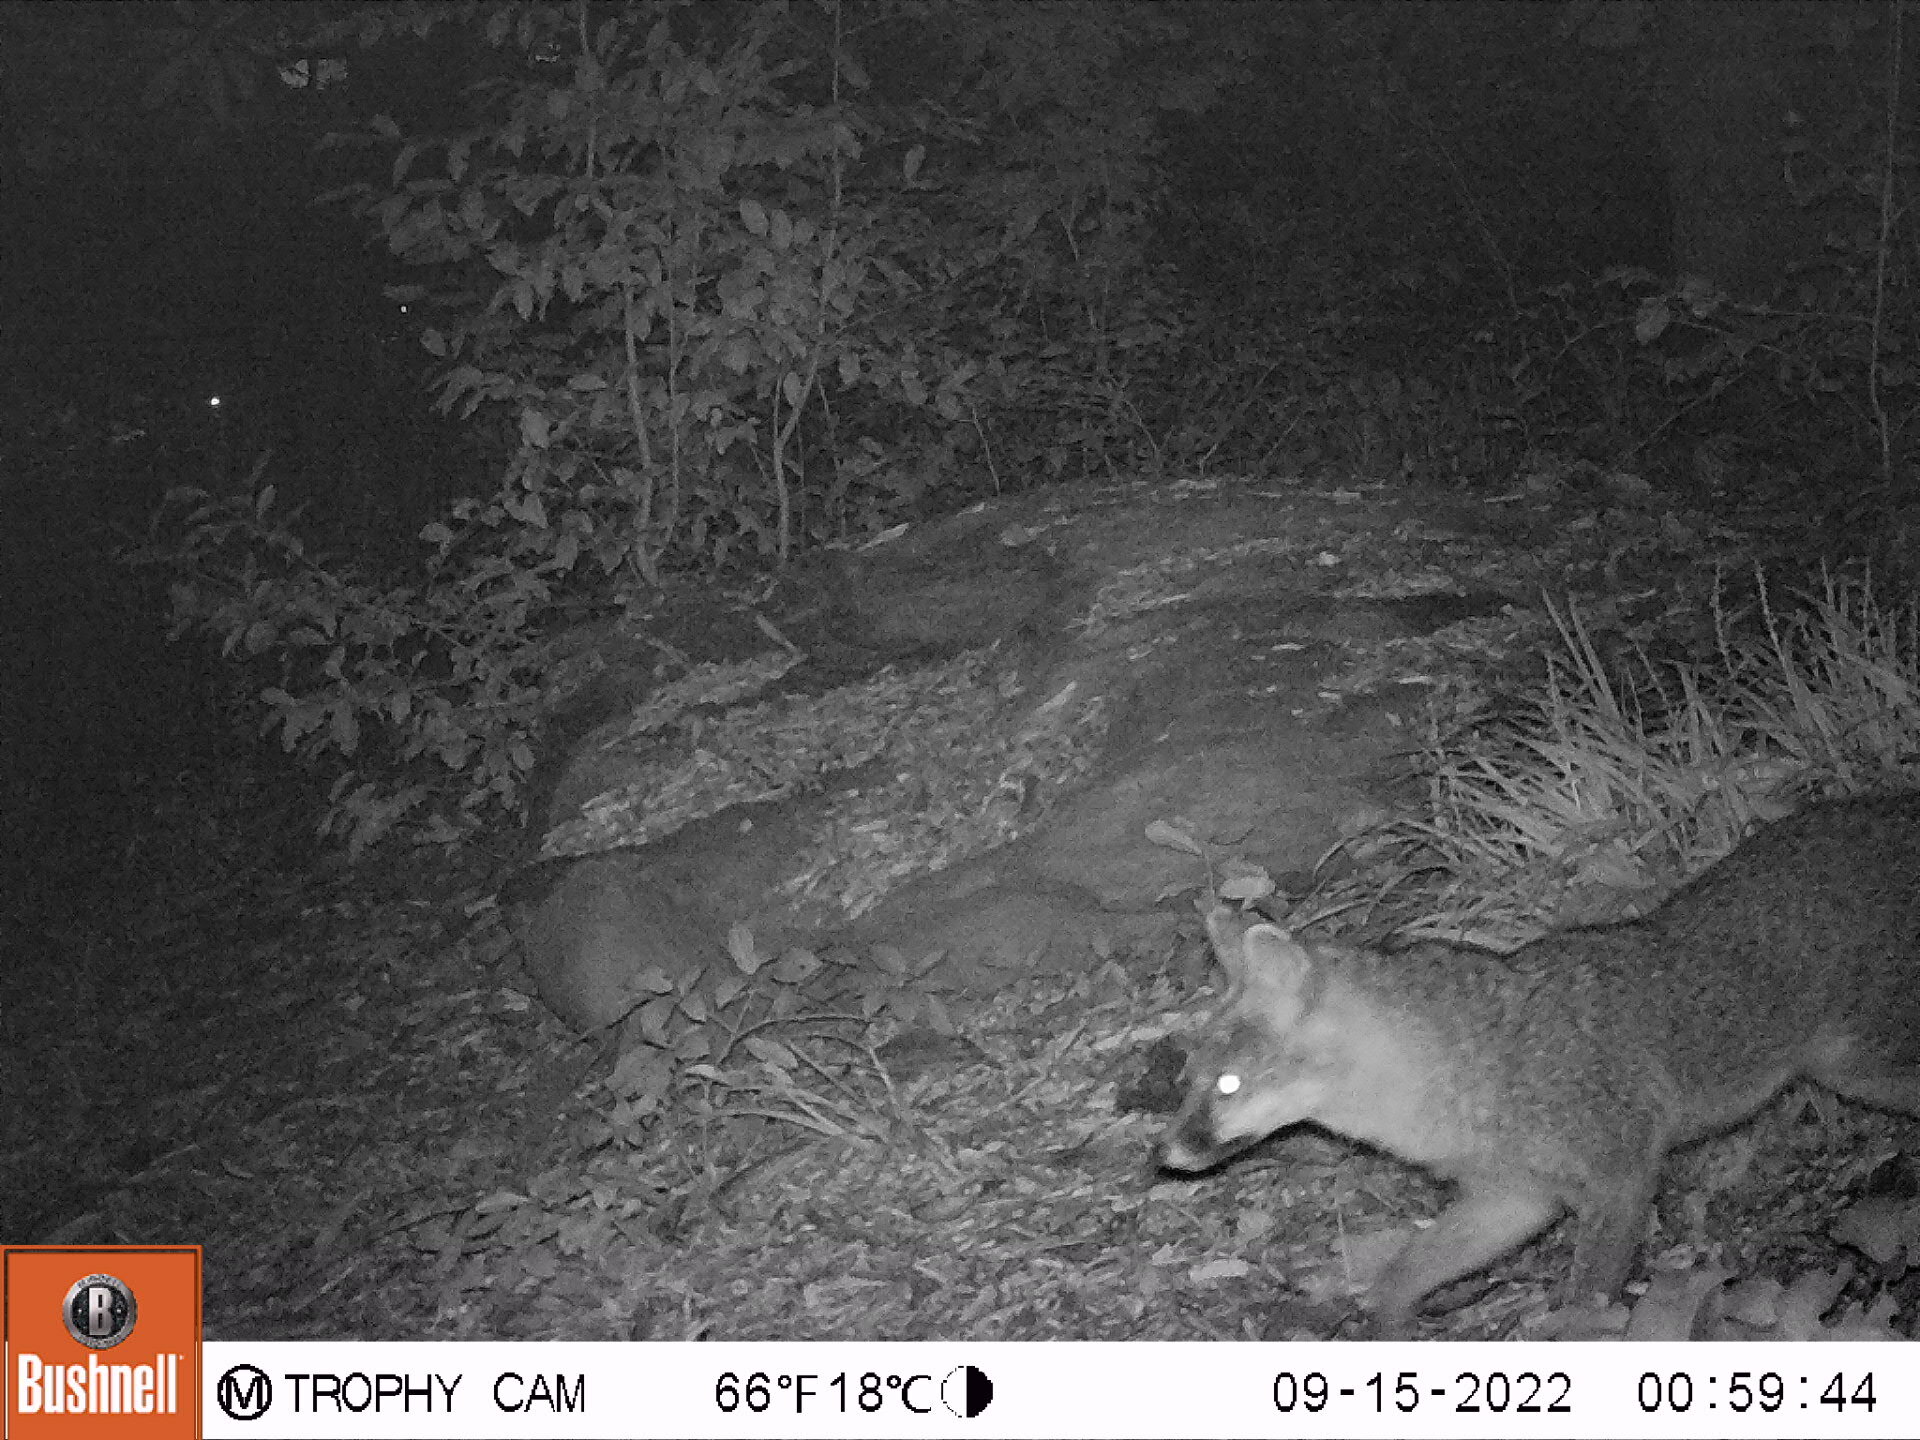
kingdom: Animalia
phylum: Chordata
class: Mammalia
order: Carnivora
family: Canidae
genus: Urocyon
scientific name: Urocyon cinereoargenteus
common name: Gray fox
